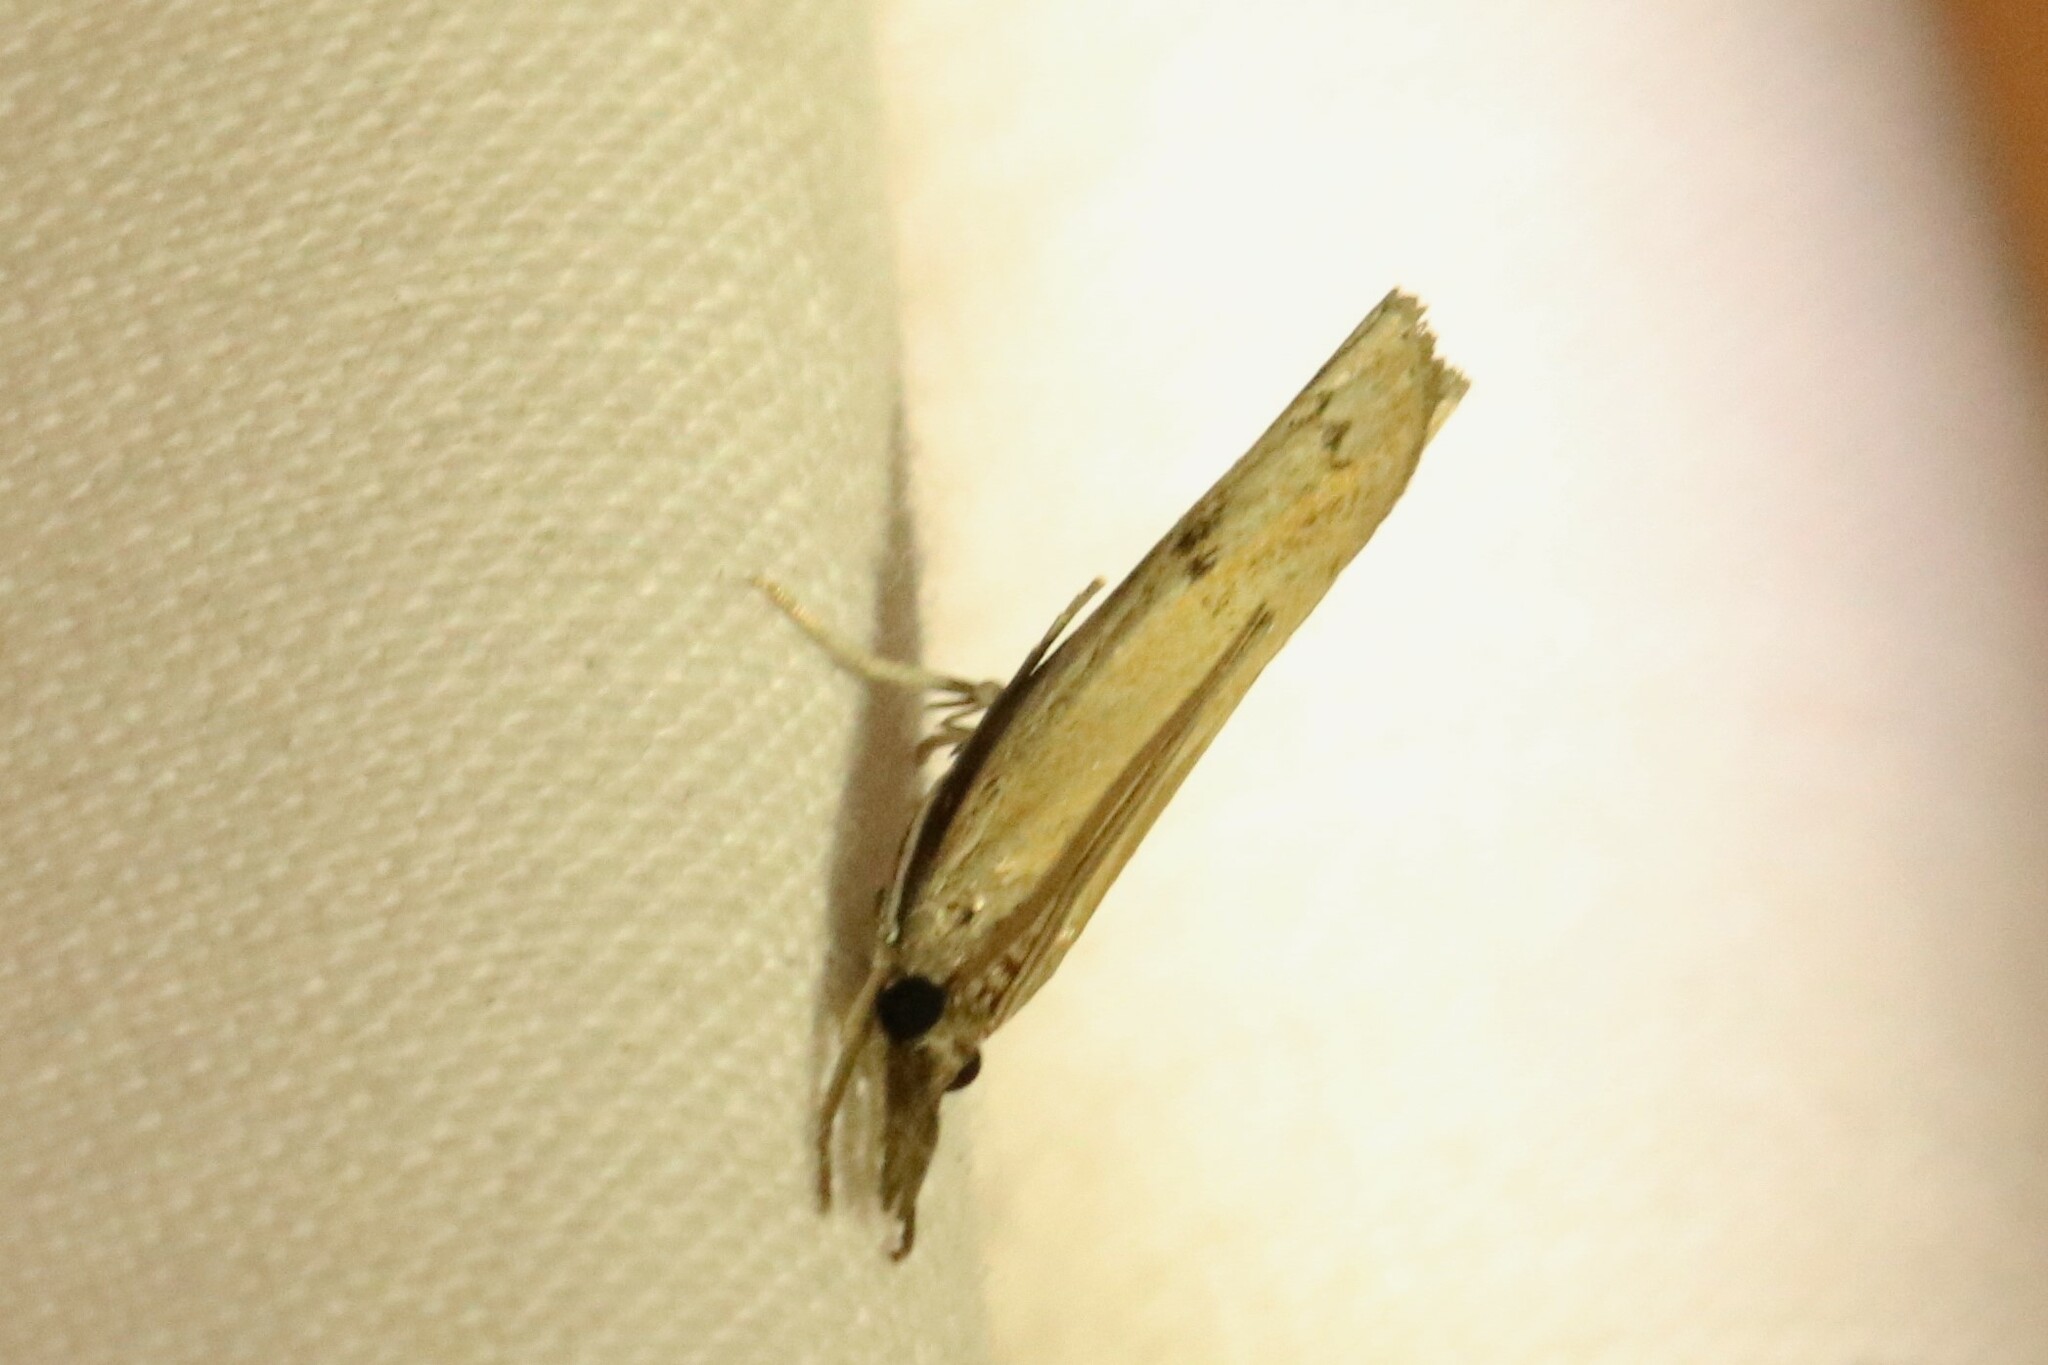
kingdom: Animalia
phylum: Arthropoda
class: Insecta
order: Lepidoptera
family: Crambidae
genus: Fissicrambus
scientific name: Fissicrambus mutabilis
